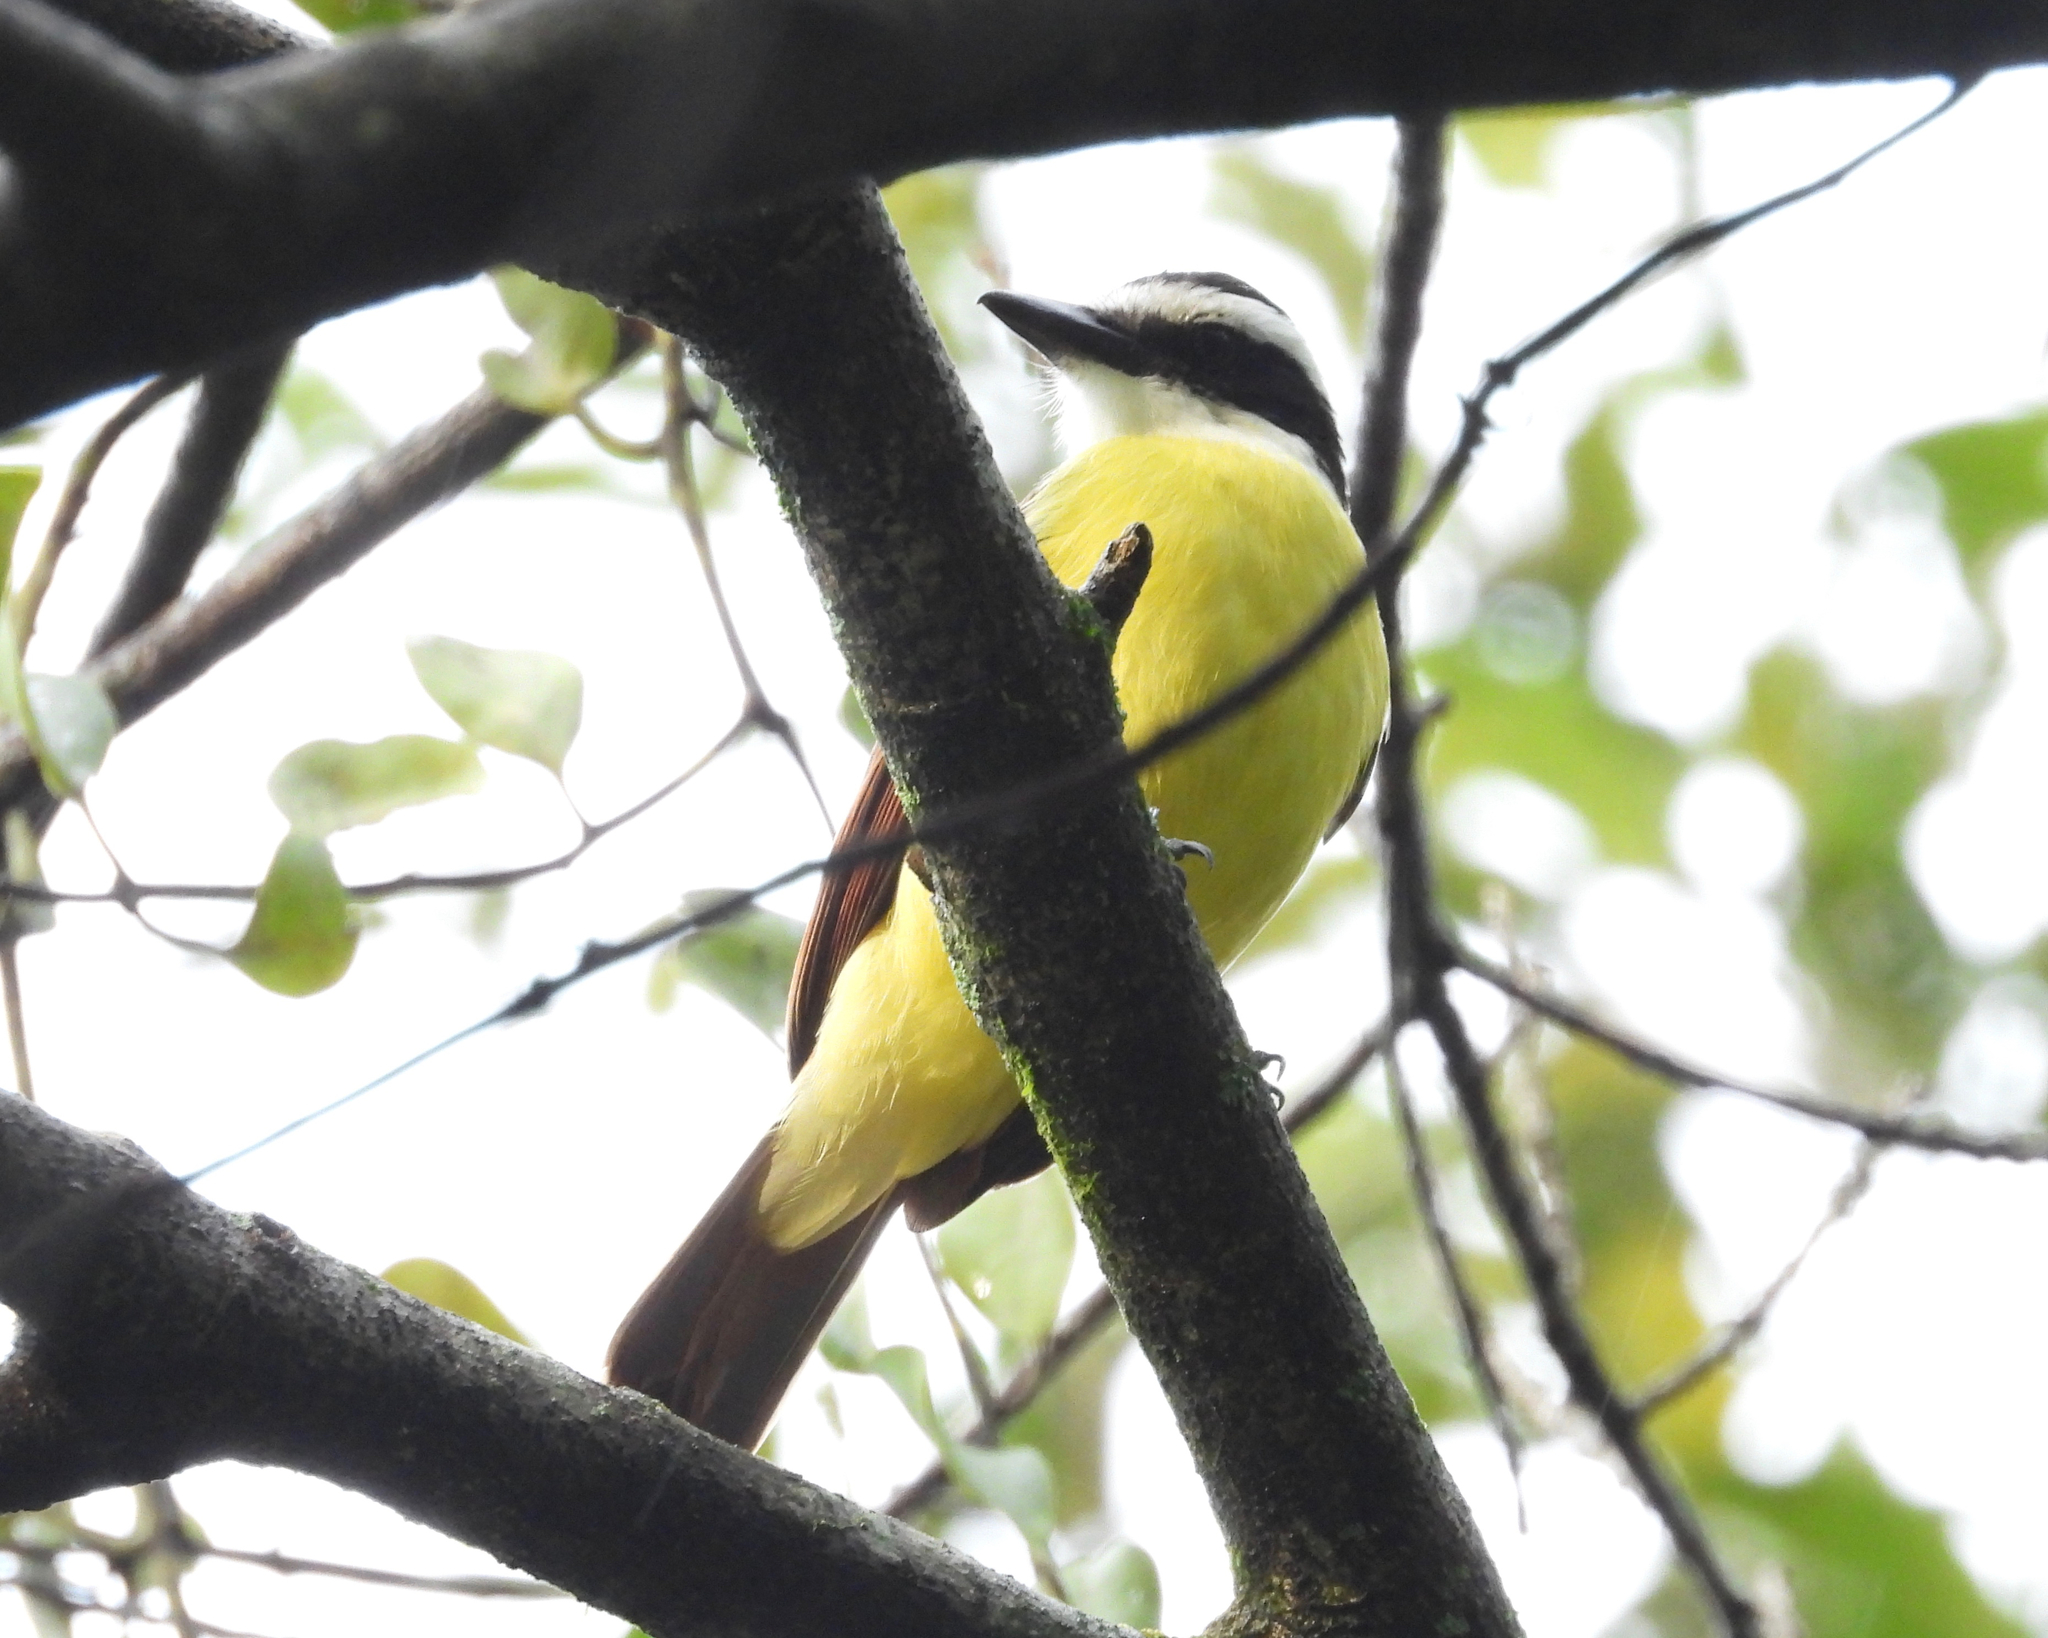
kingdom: Animalia
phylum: Chordata
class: Aves
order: Passeriformes
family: Tyrannidae
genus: Pitangus
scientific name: Pitangus sulphuratus
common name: Great kiskadee
